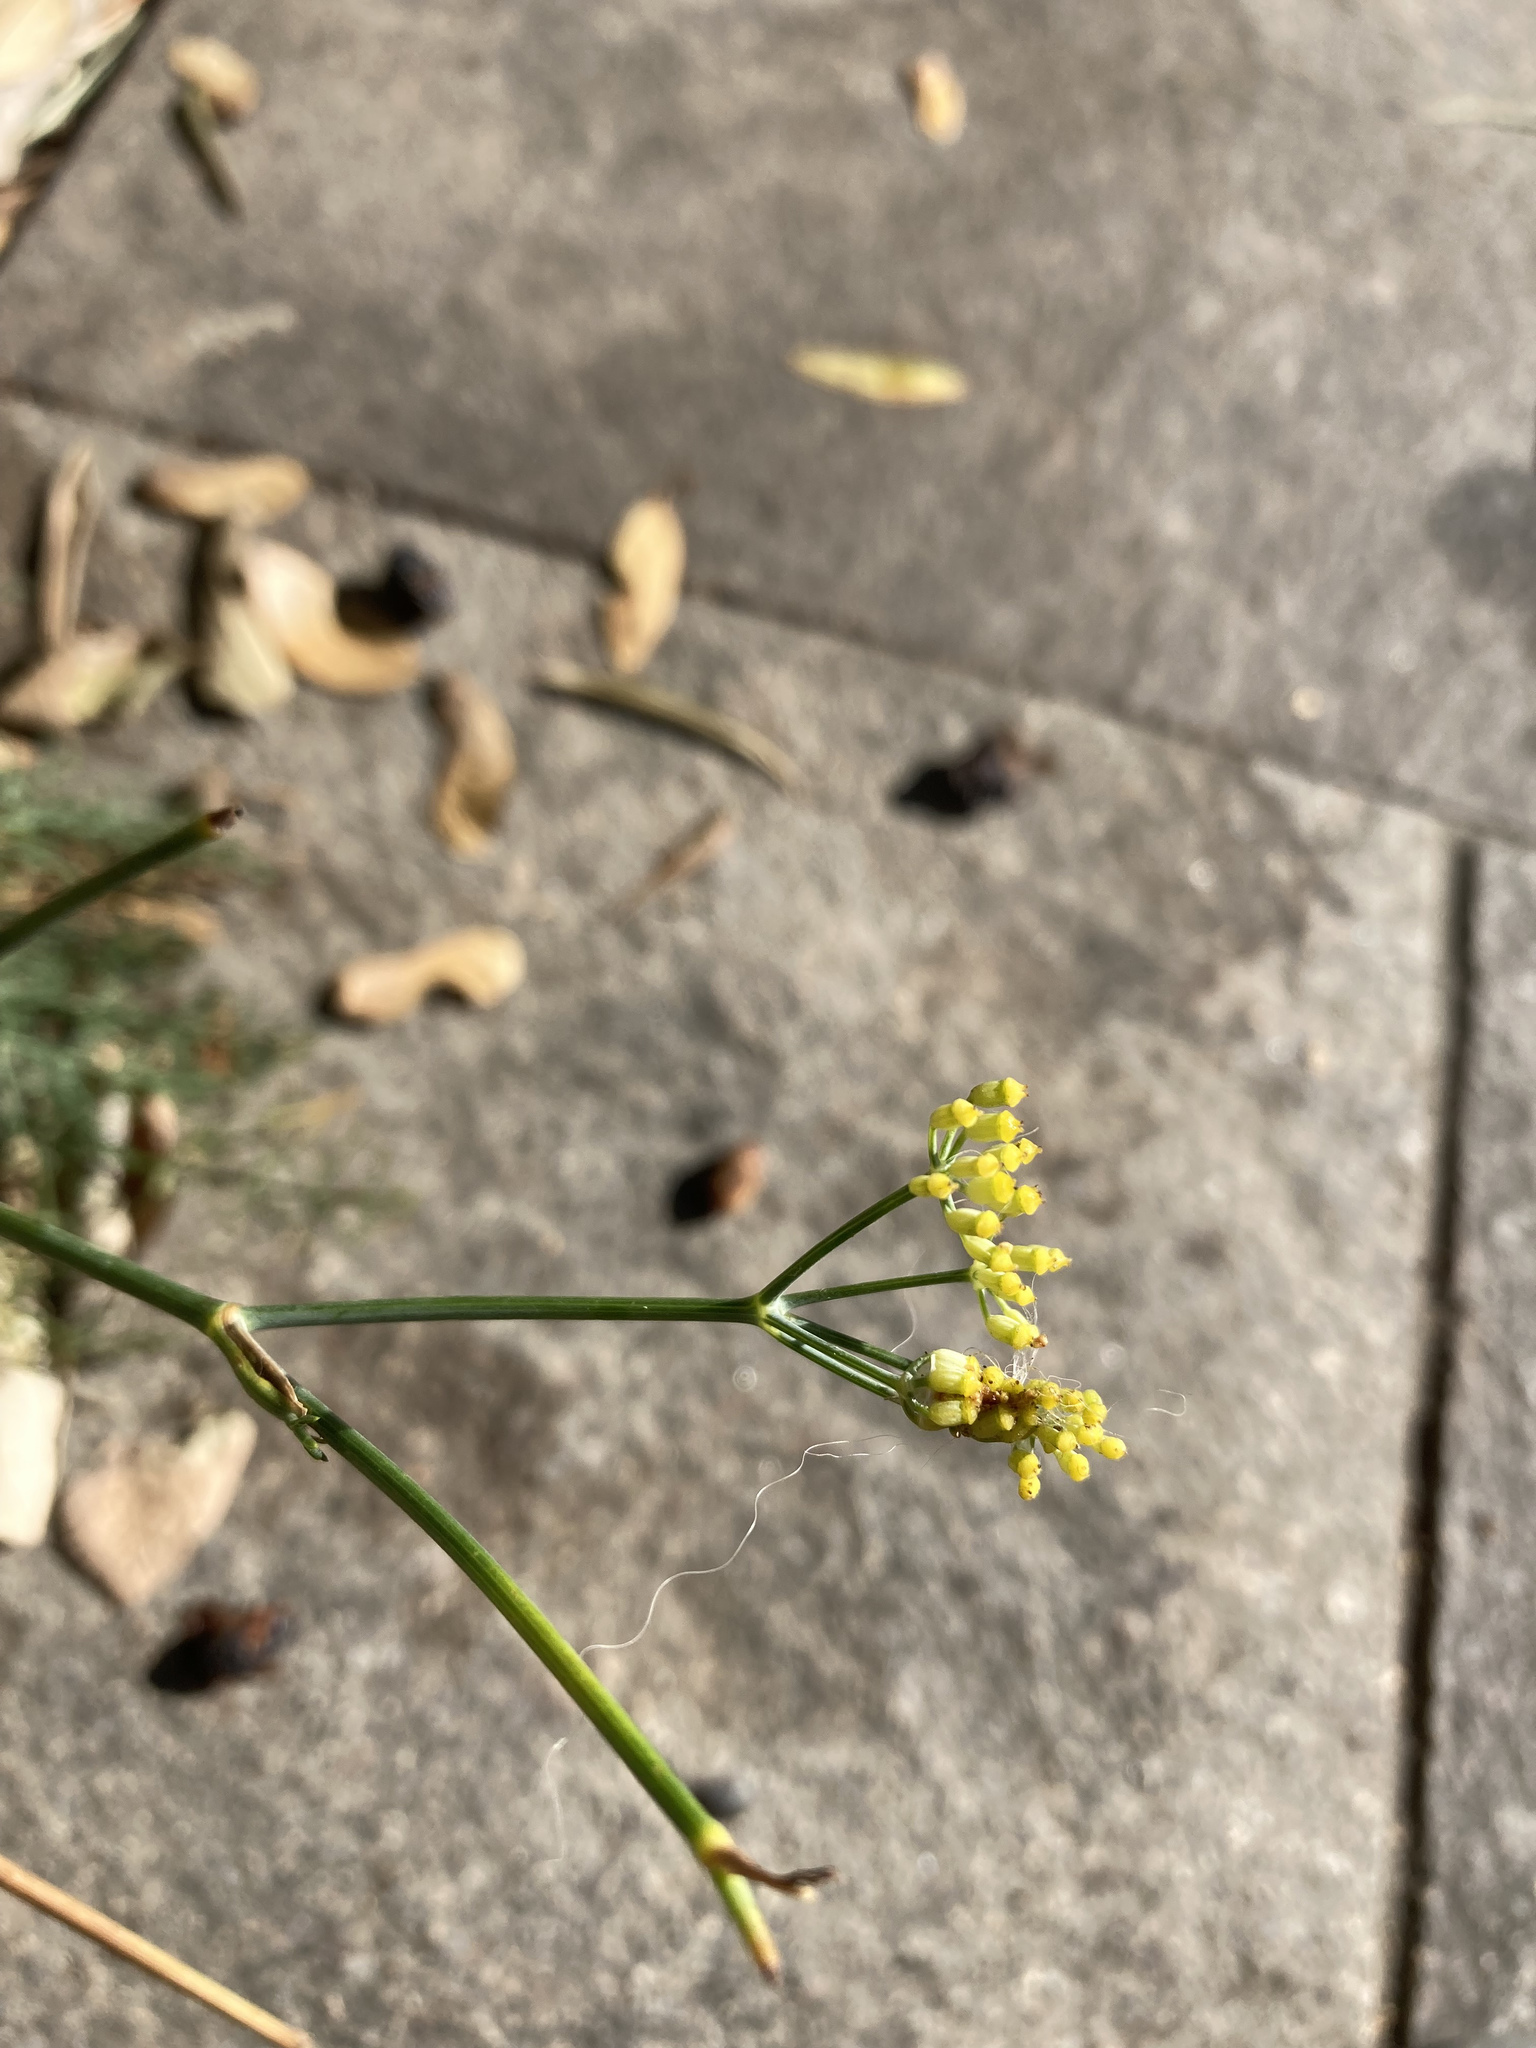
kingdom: Plantae
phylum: Tracheophyta
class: Magnoliopsida
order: Apiales
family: Apiaceae
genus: Foeniculum
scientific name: Foeniculum vulgare
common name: Fennel
